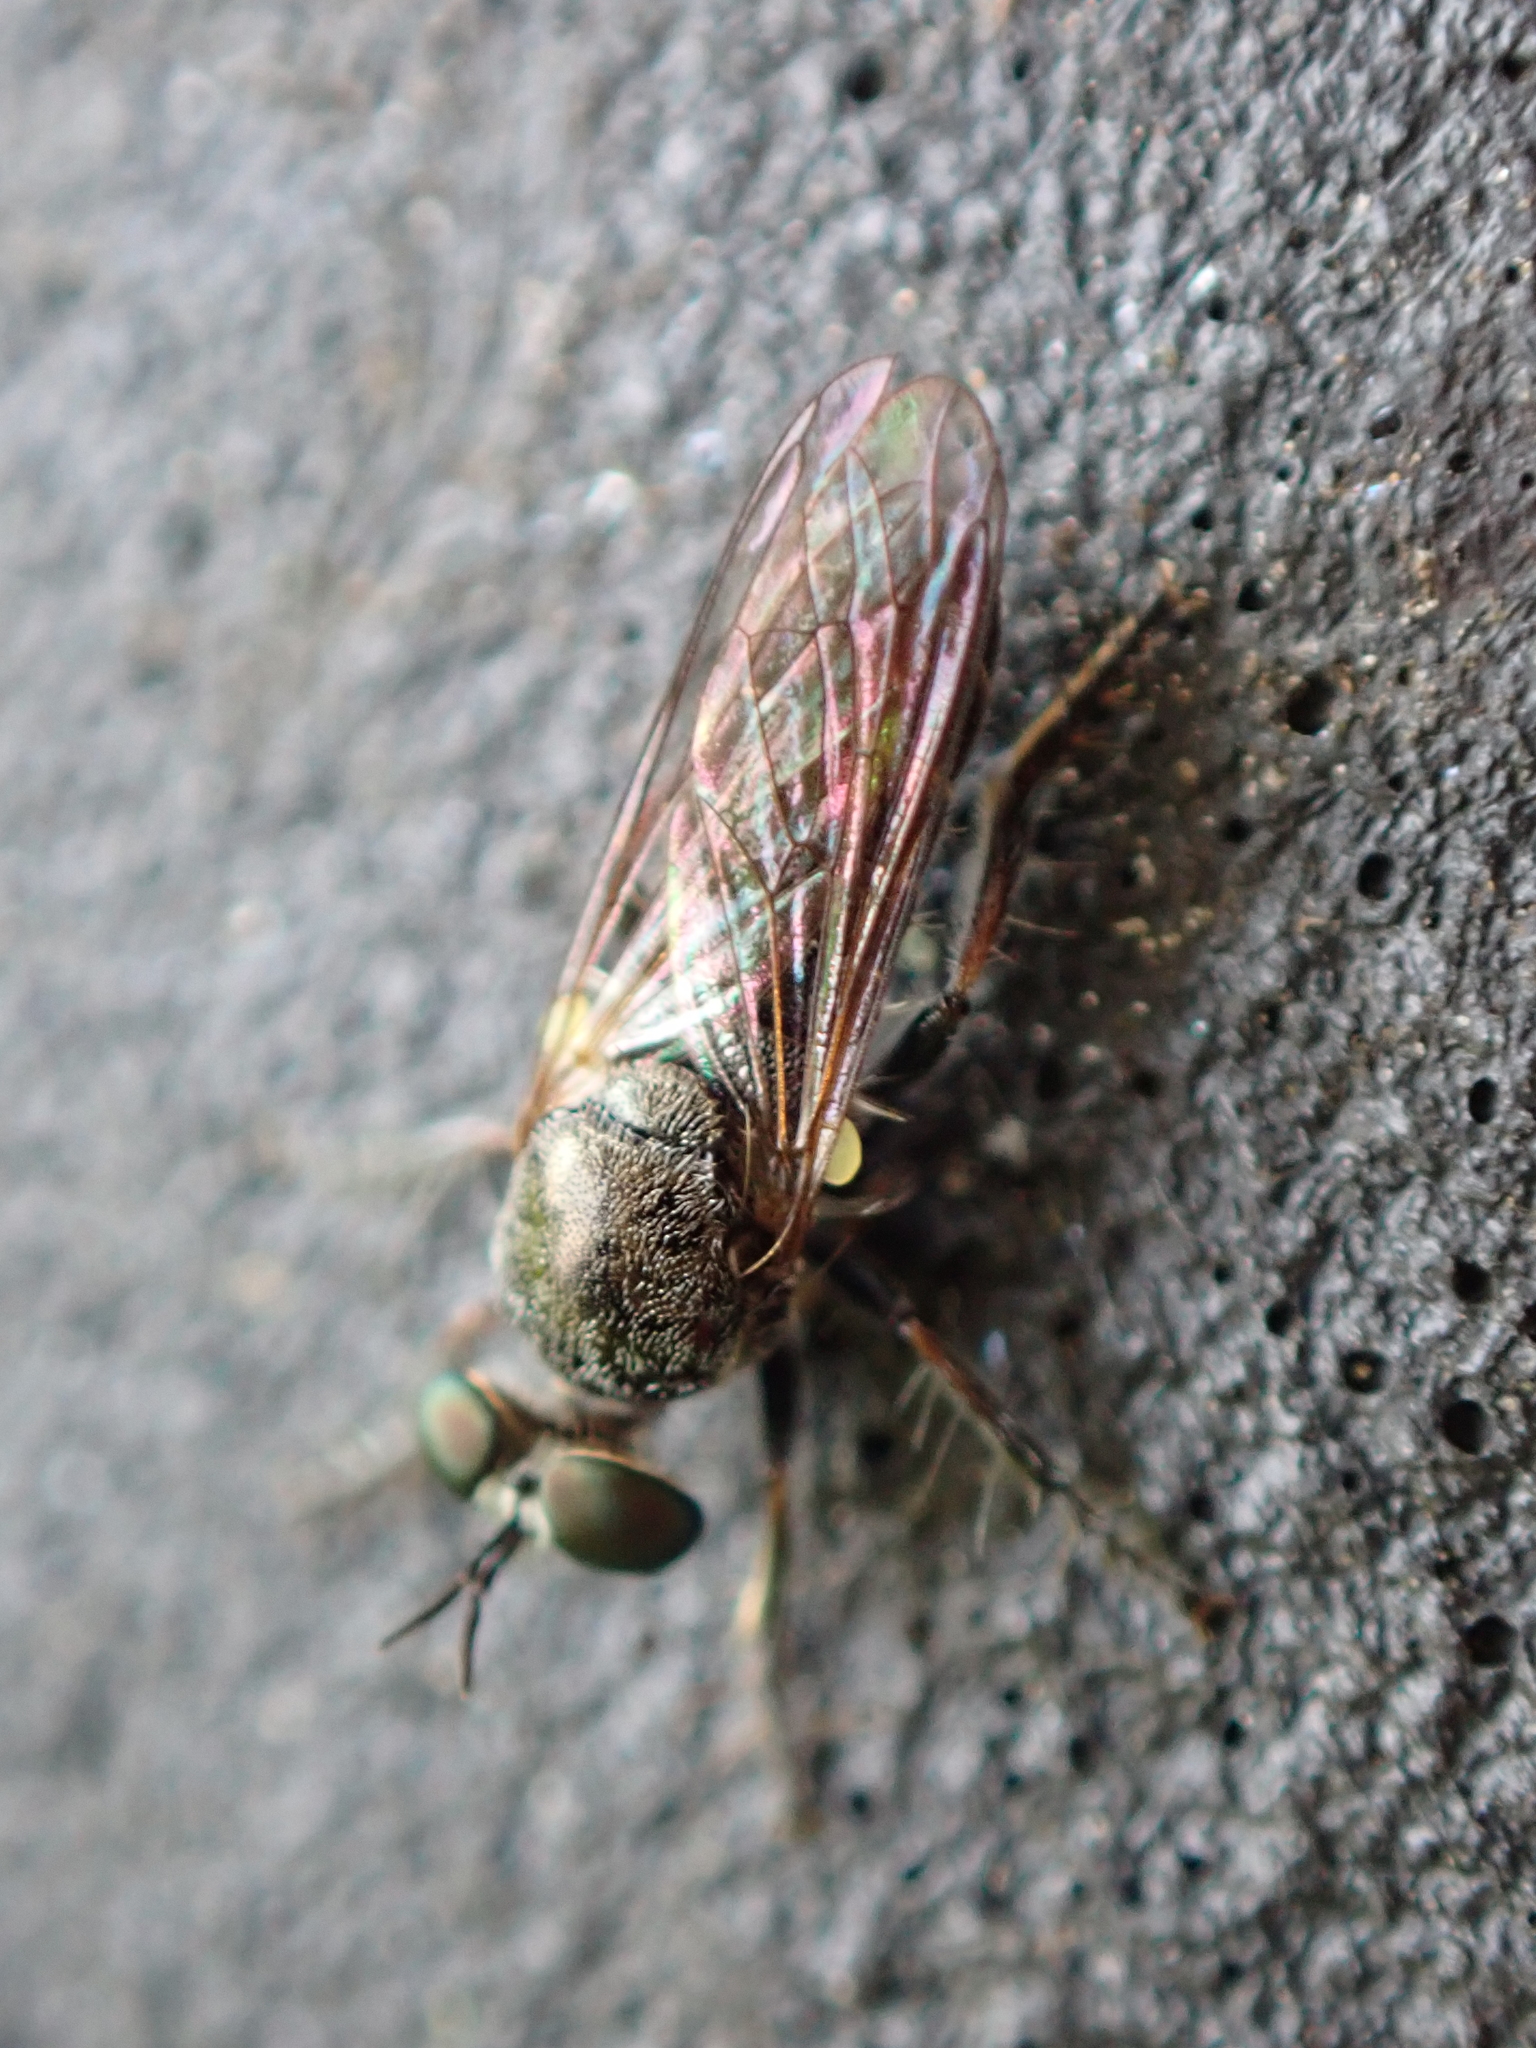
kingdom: Animalia
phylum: Arthropoda
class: Insecta
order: Diptera
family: Asilidae
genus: Atomosia
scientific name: Atomosia puella
